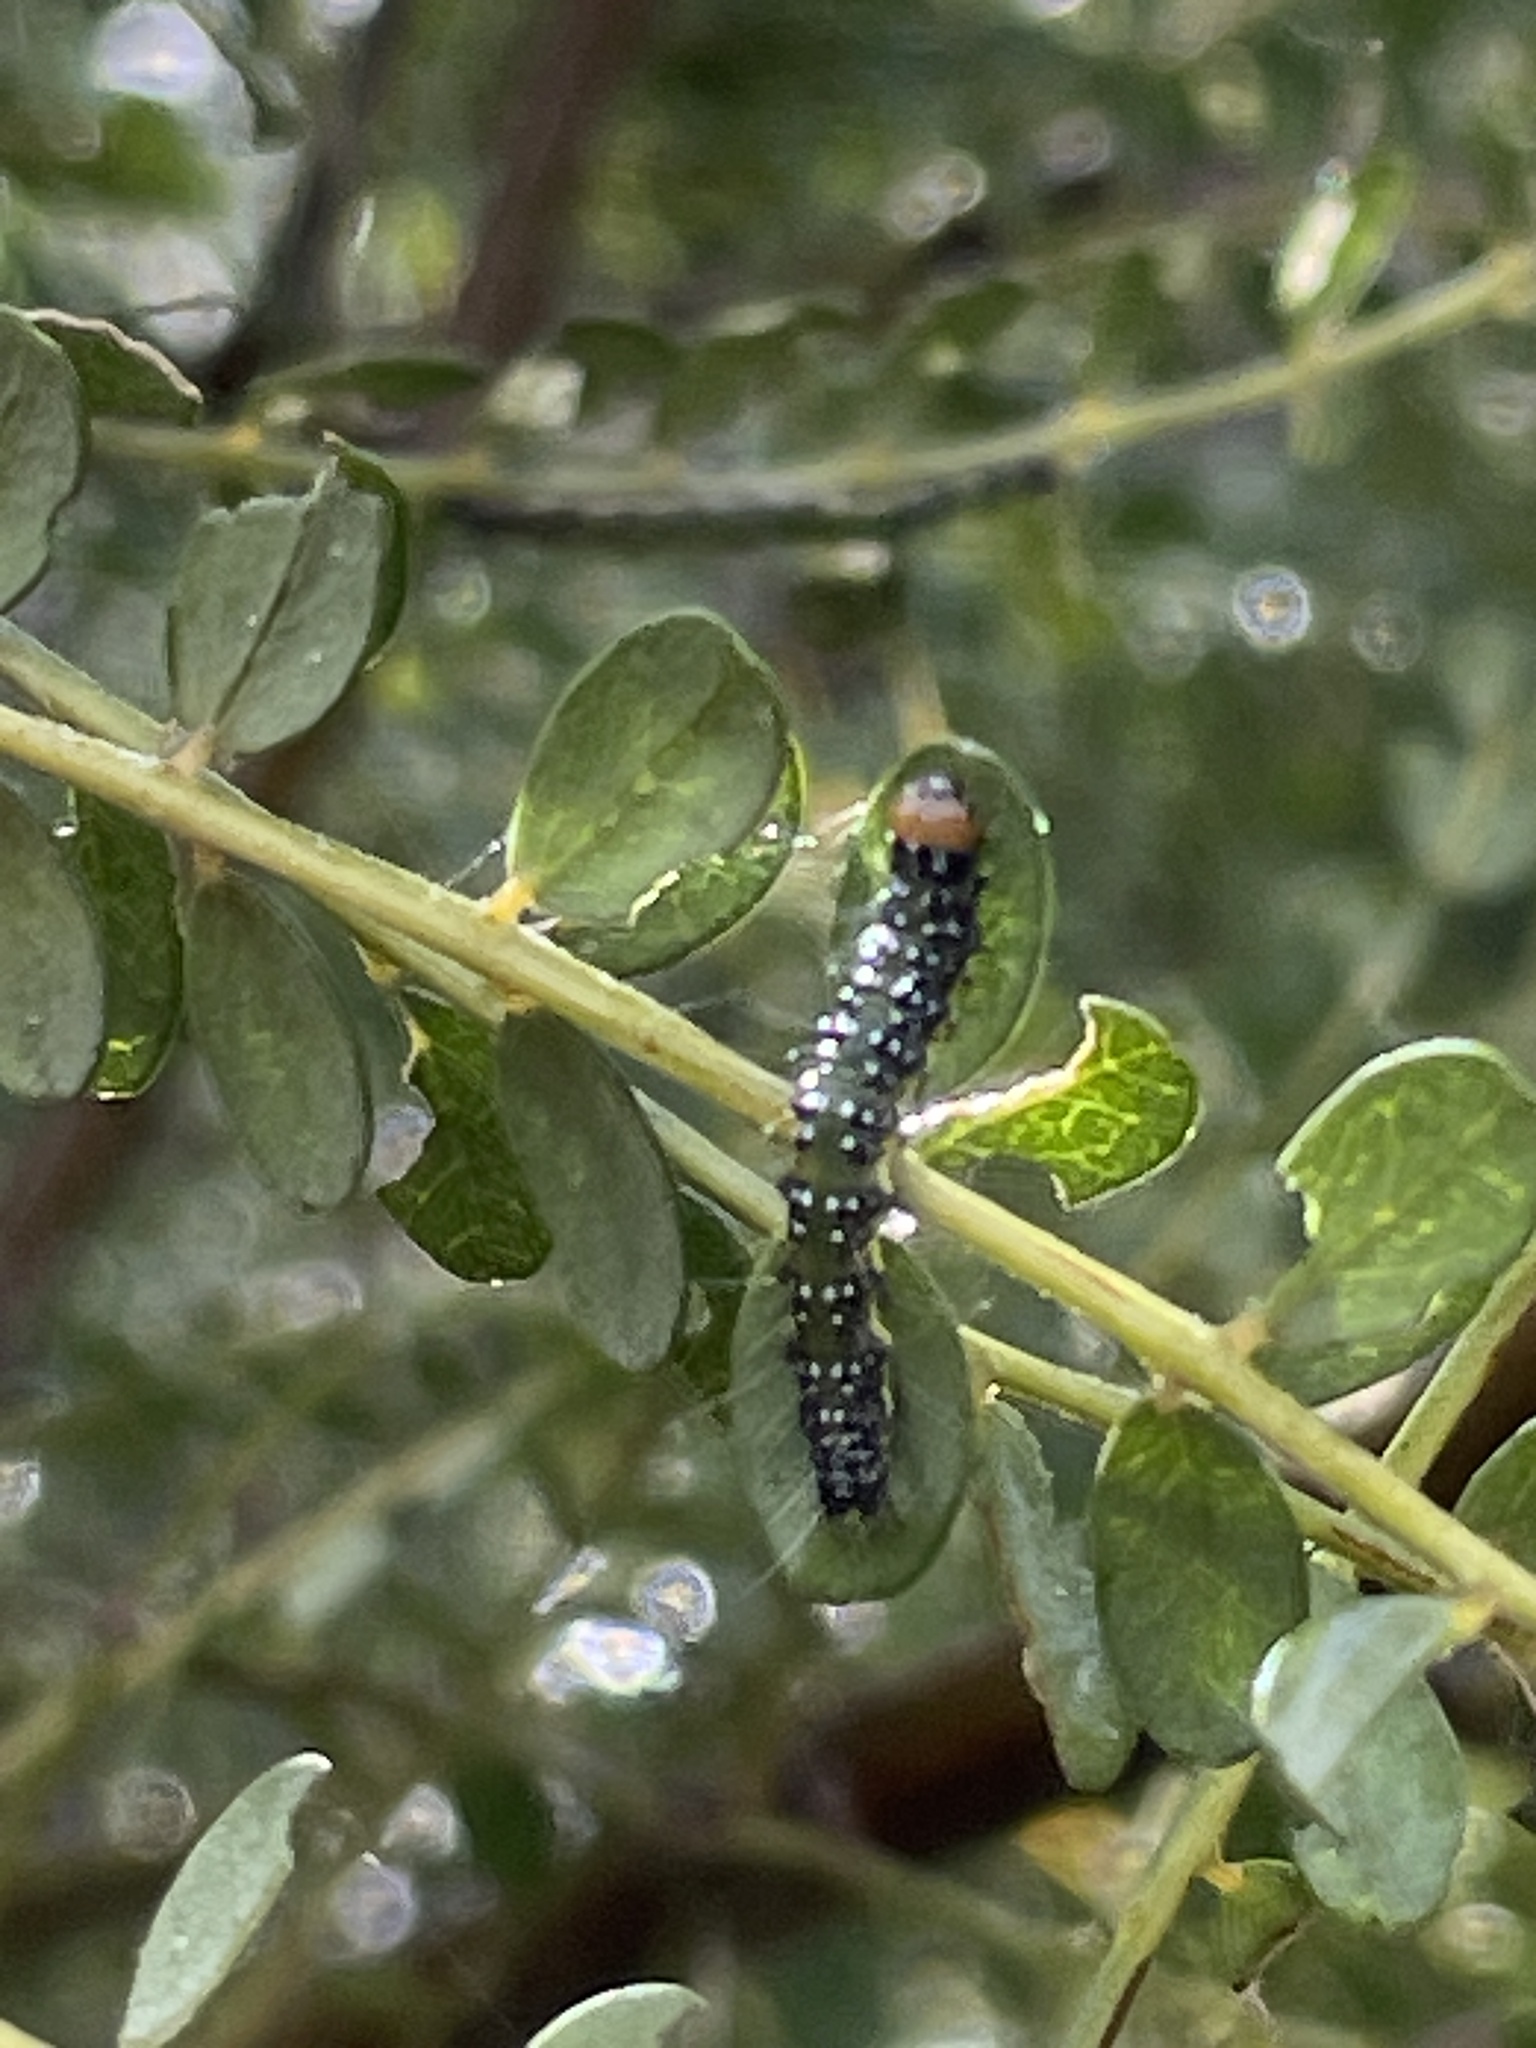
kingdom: Animalia
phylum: Arthropoda
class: Insecta
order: Lepidoptera
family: Crambidae
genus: Uresiphita
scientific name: Uresiphita
